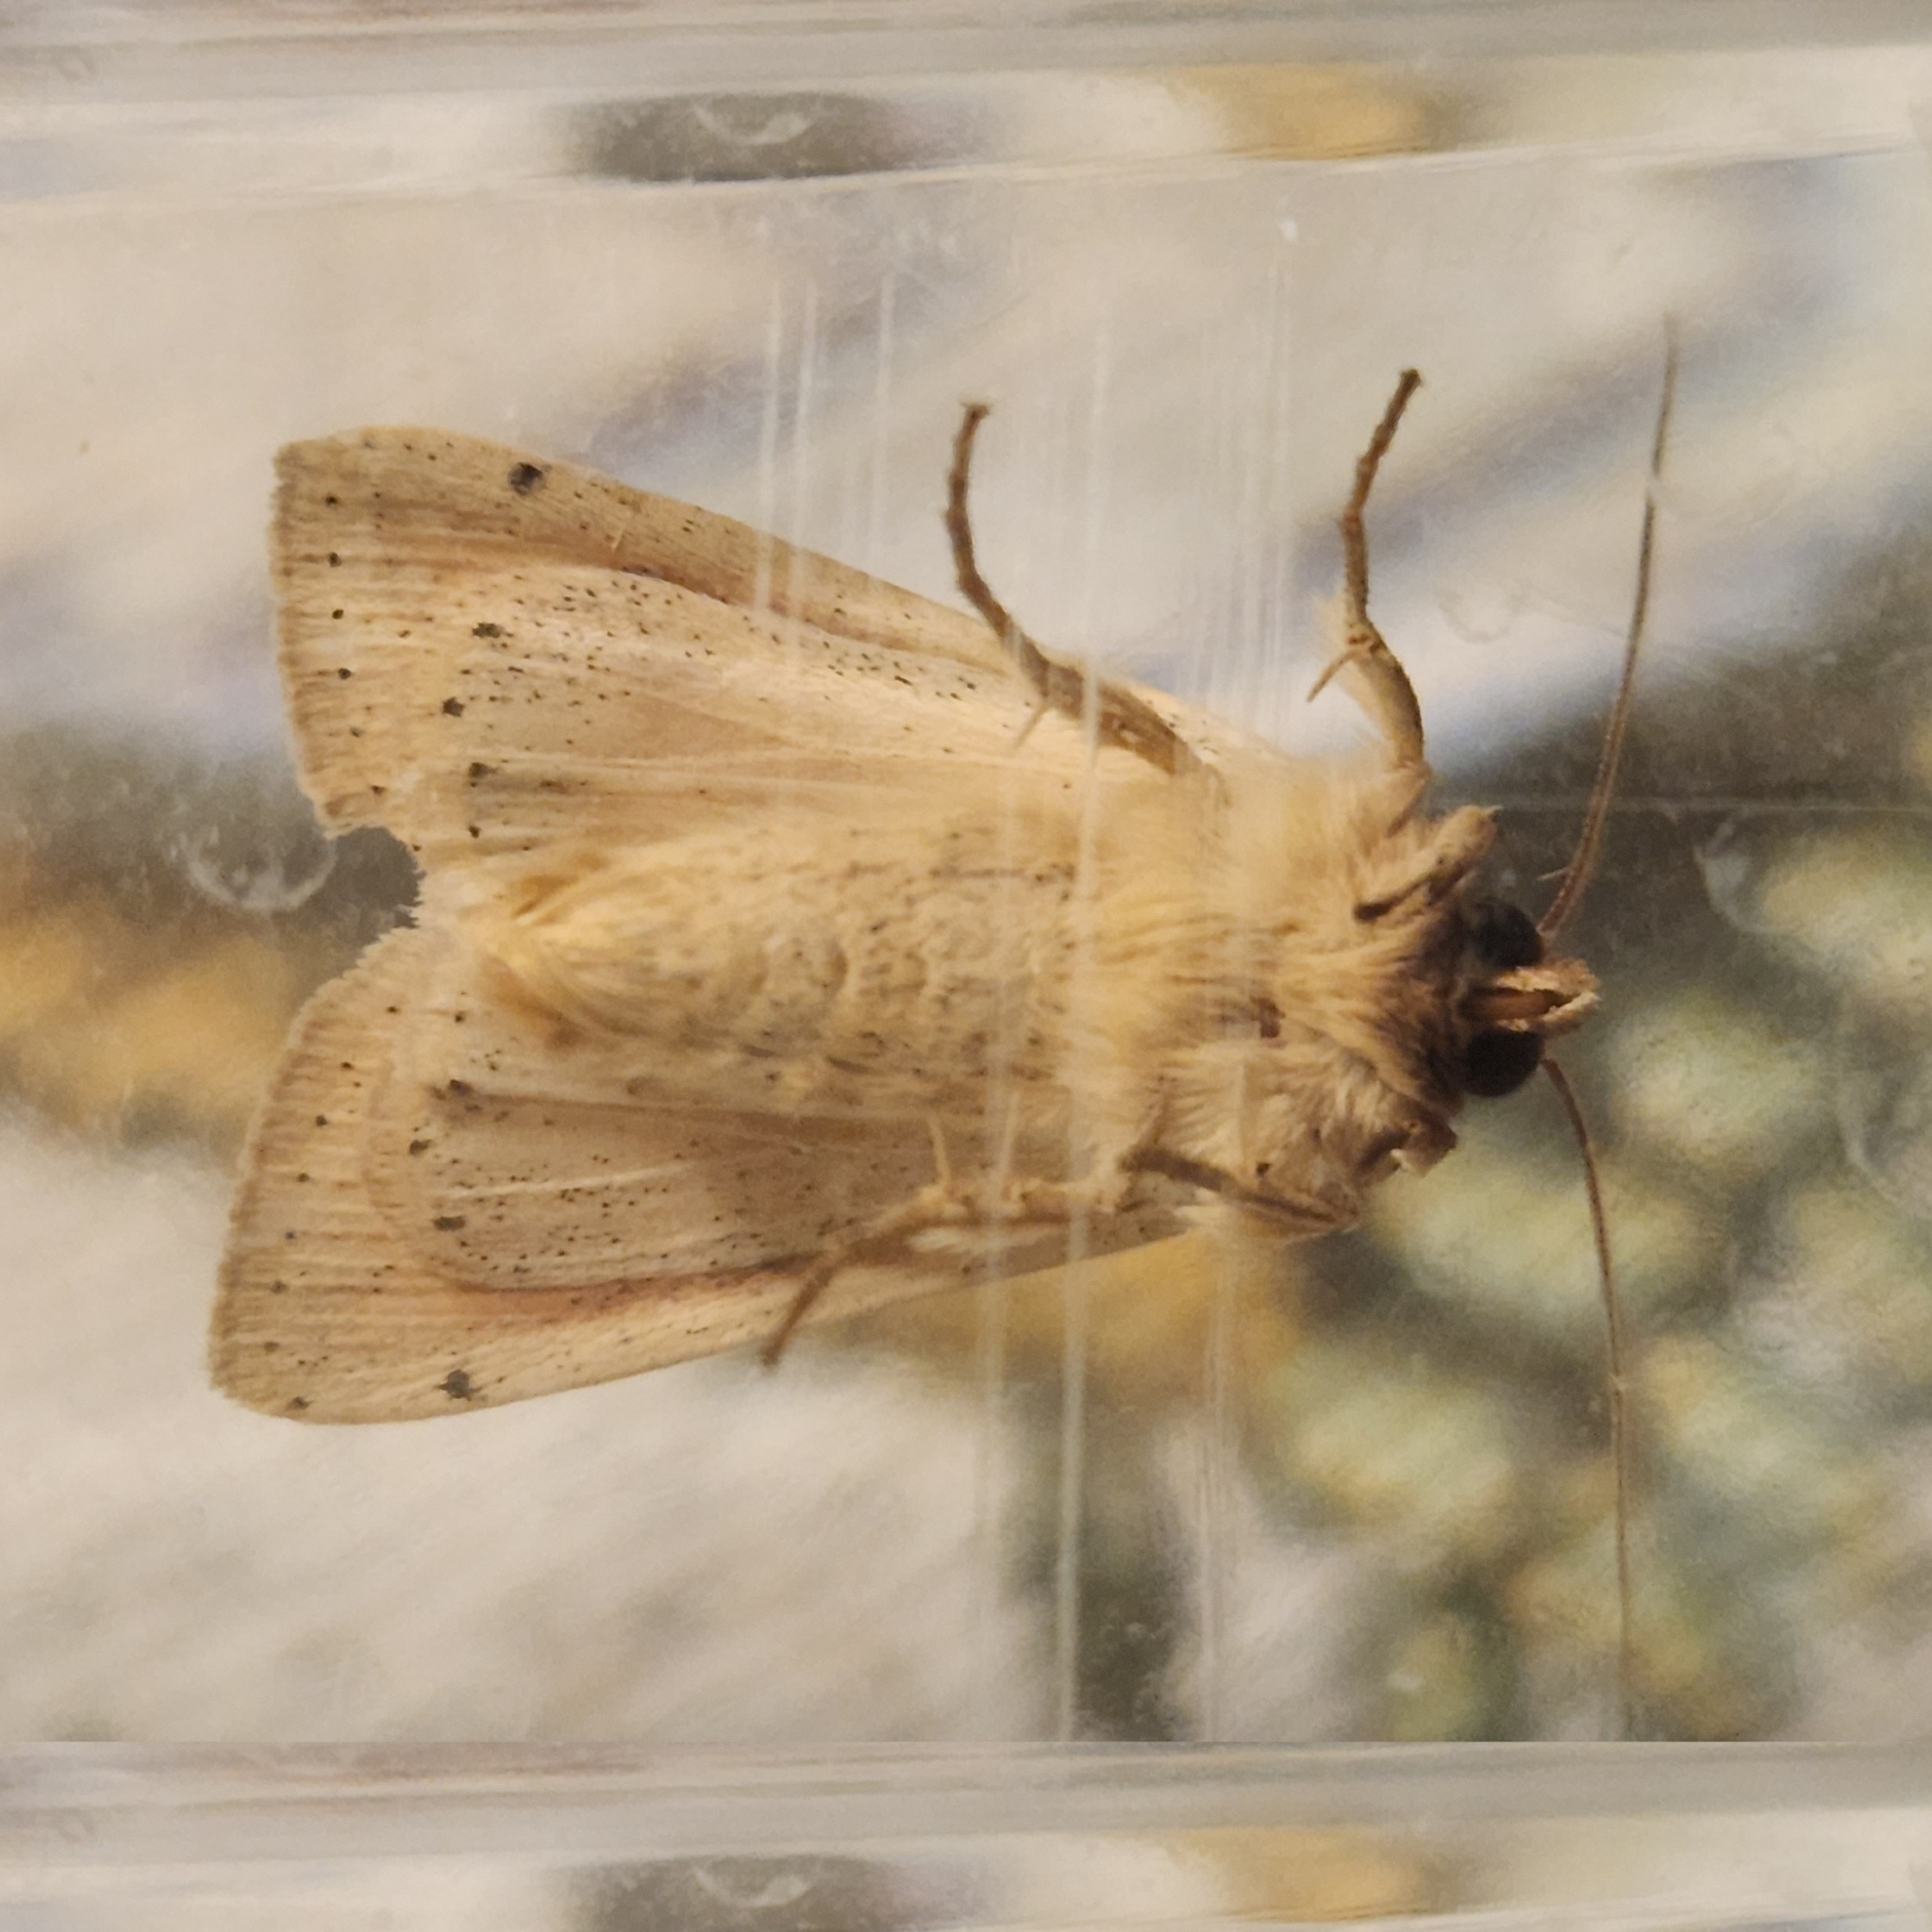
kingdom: Animalia
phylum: Arthropoda
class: Insecta
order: Lepidoptera
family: Noctuidae
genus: Leucania
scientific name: Leucania adjuta
